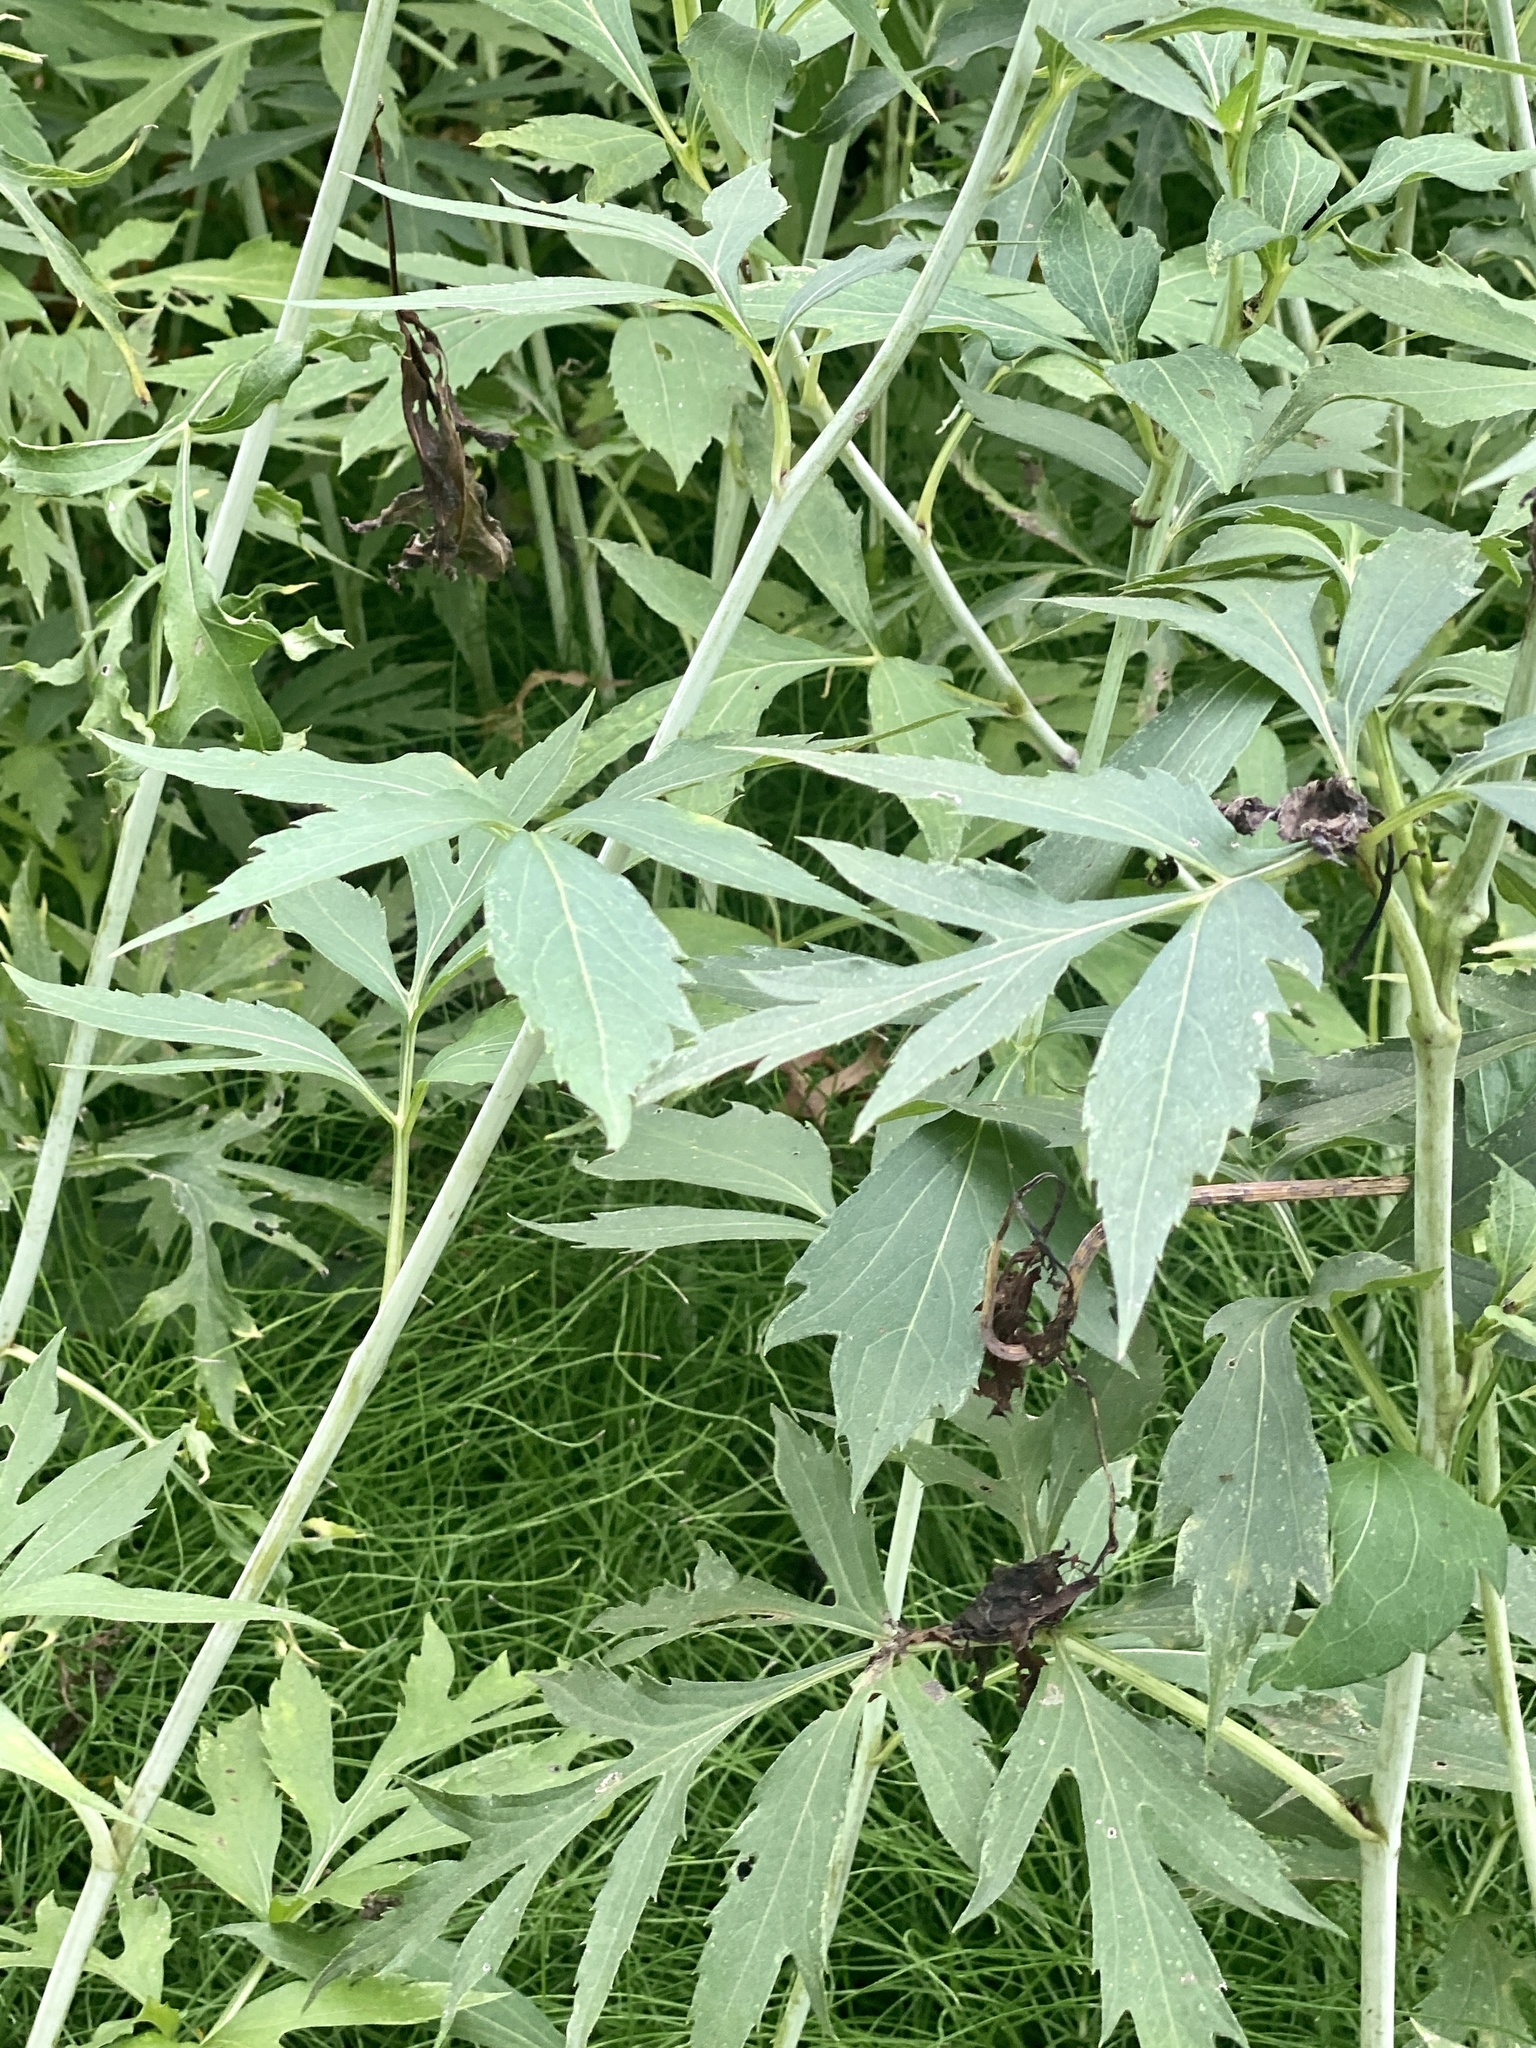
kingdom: Plantae
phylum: Tracheophyta
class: Magnoliopsida
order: Asterales
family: Asteraceae
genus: Rudbeckia
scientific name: Rudbeckia laciniata
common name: Coneflower
